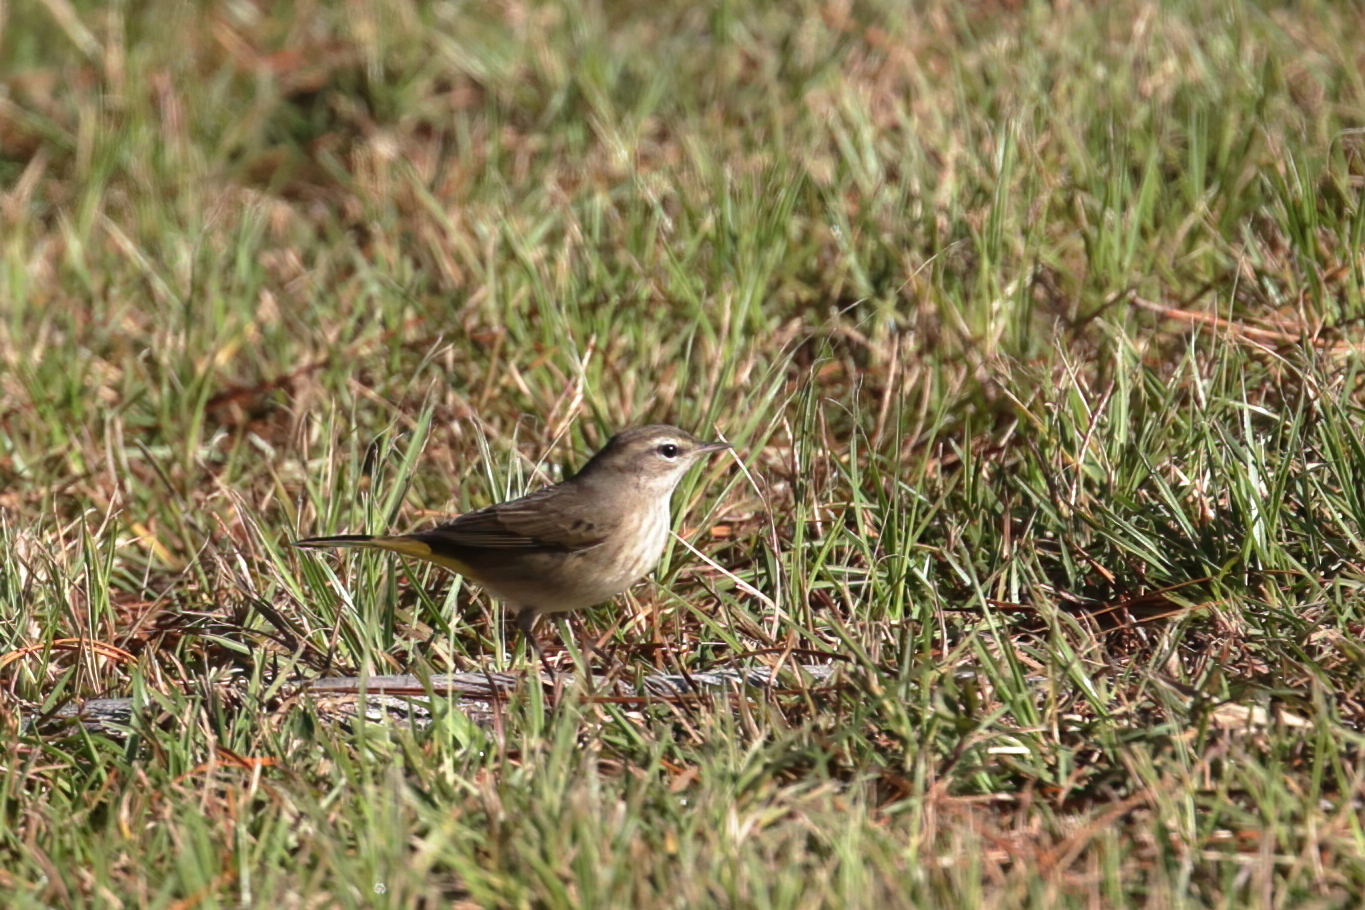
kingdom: Animalia
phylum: Chordata
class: Aves
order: Passeriformes
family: Parulidae
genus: Setophaga
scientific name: Setophaga palmarum
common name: Palm warbler
